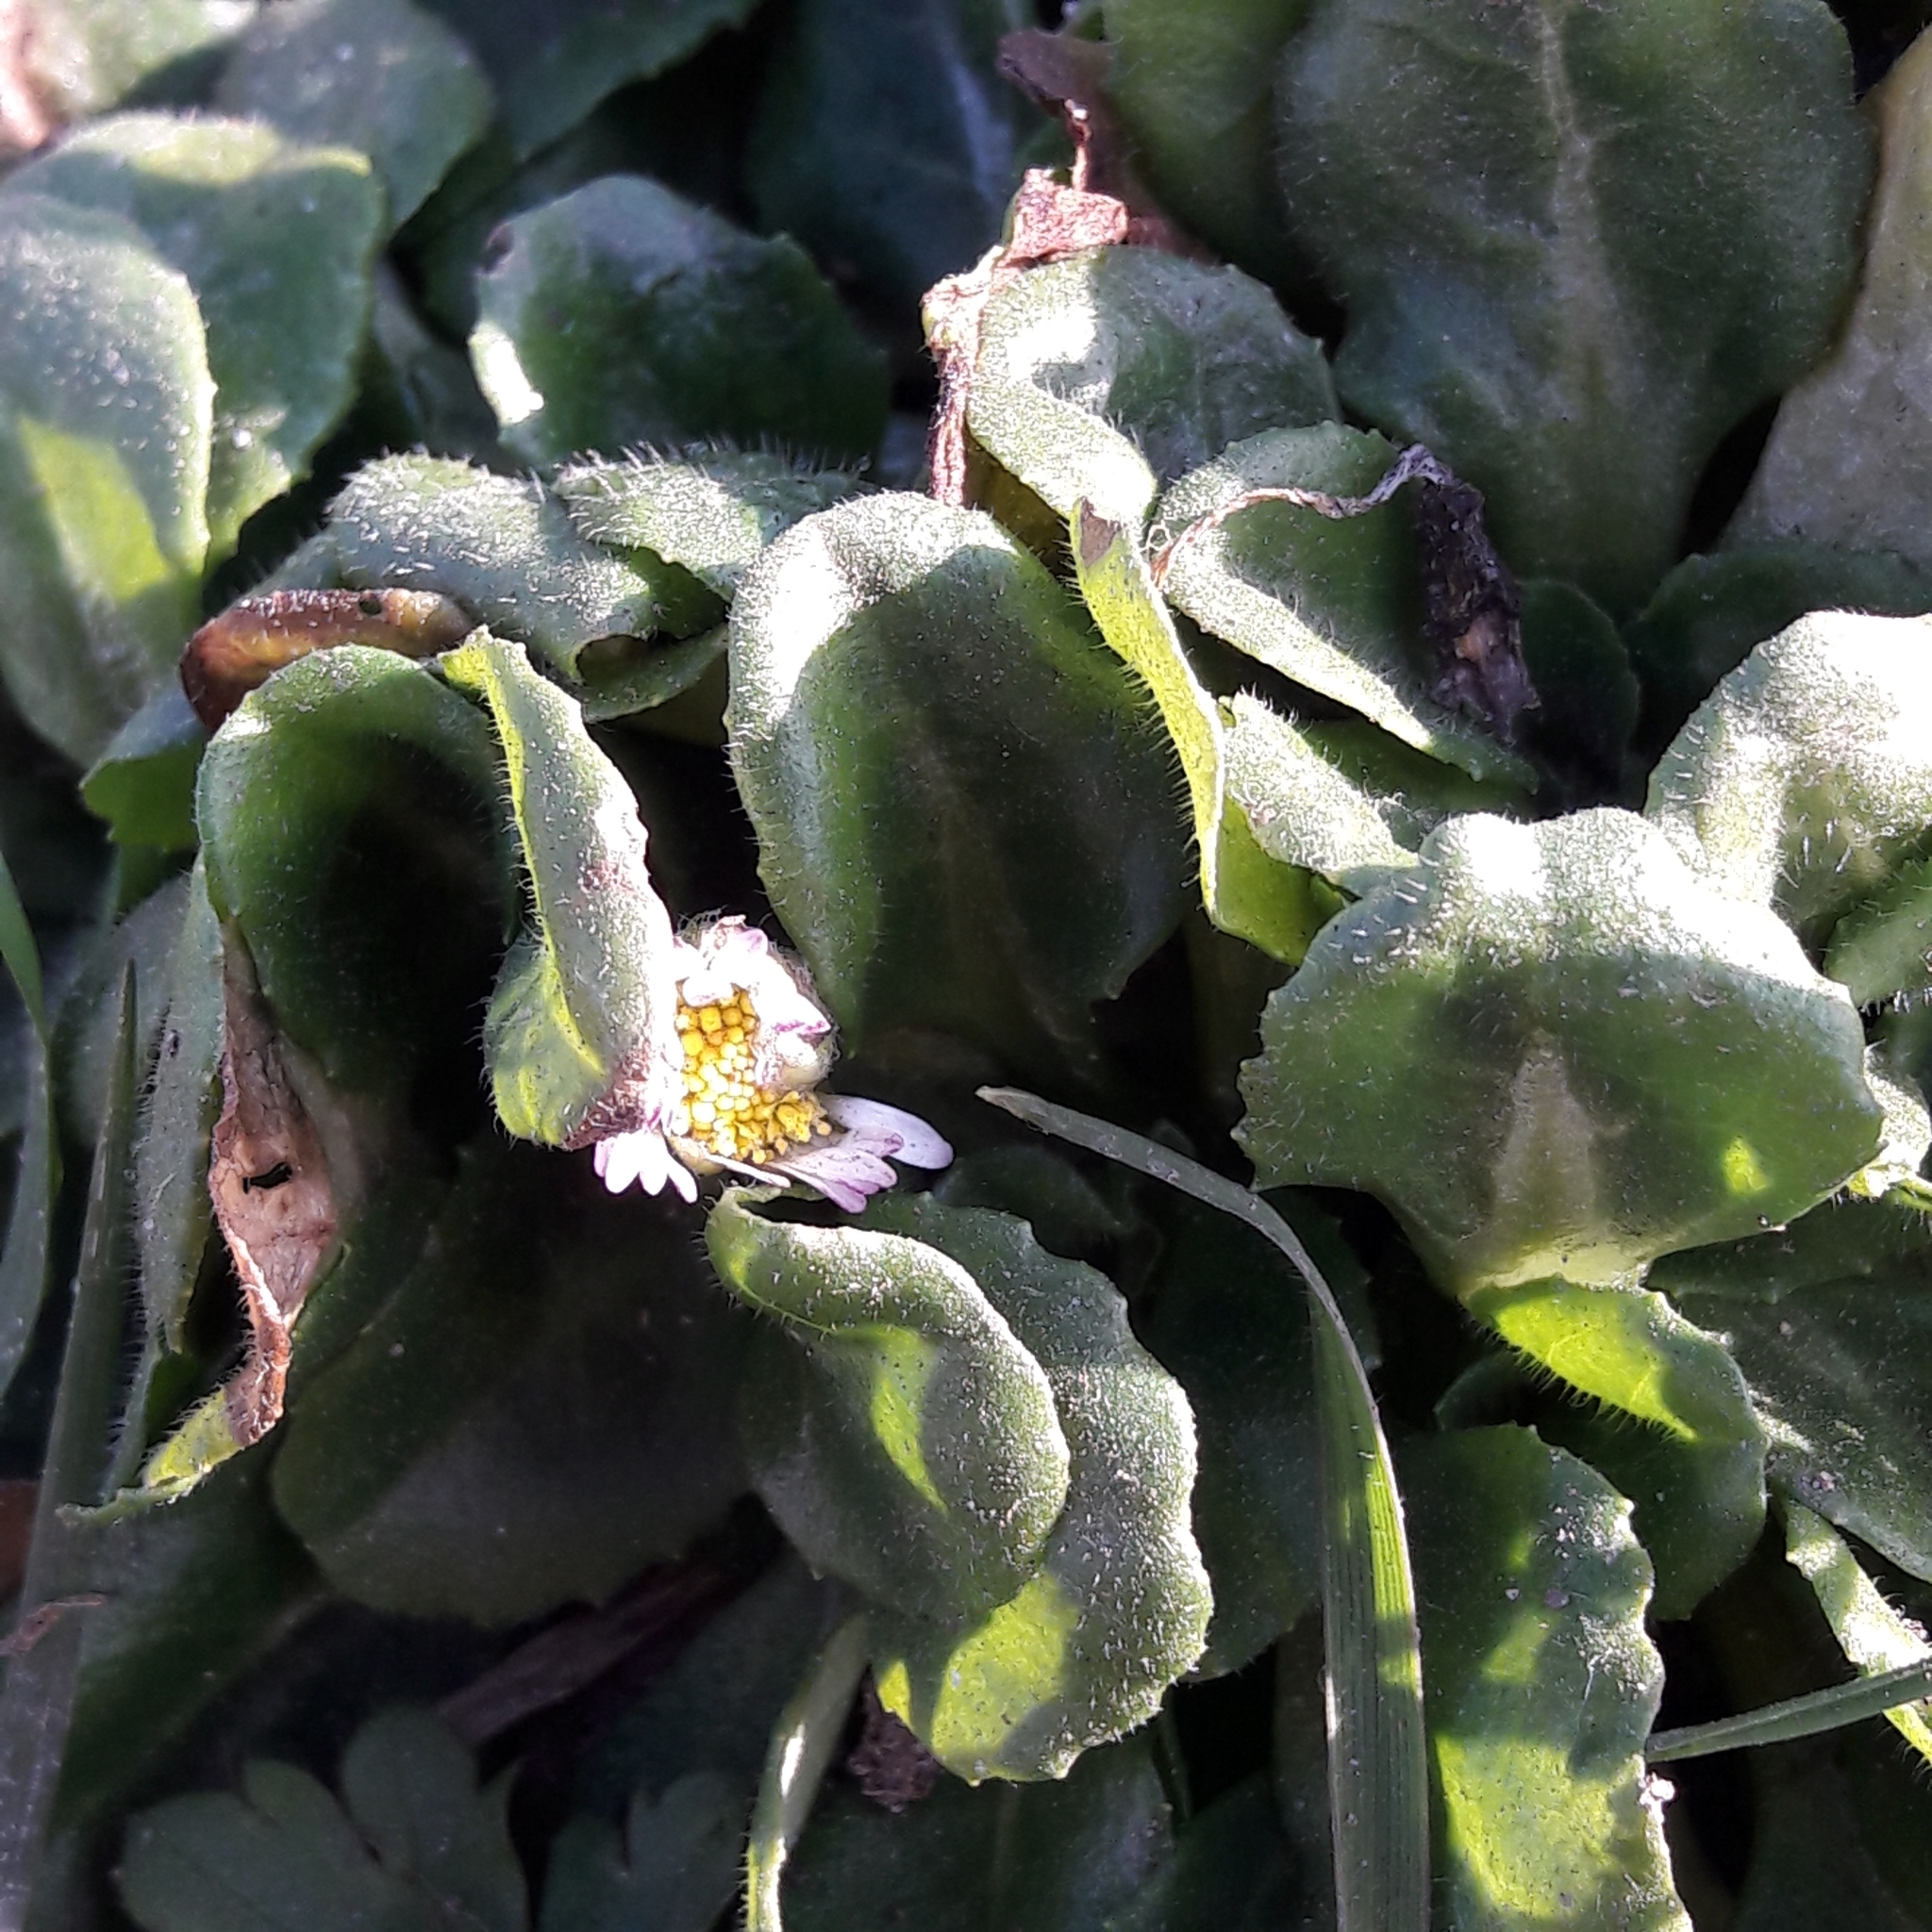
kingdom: Plantae
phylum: Tracheophyta
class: Magnoliopsida
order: Asterales
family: Asteraceae
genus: Bellis
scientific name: Bellis perennis
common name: Lawndaisy
